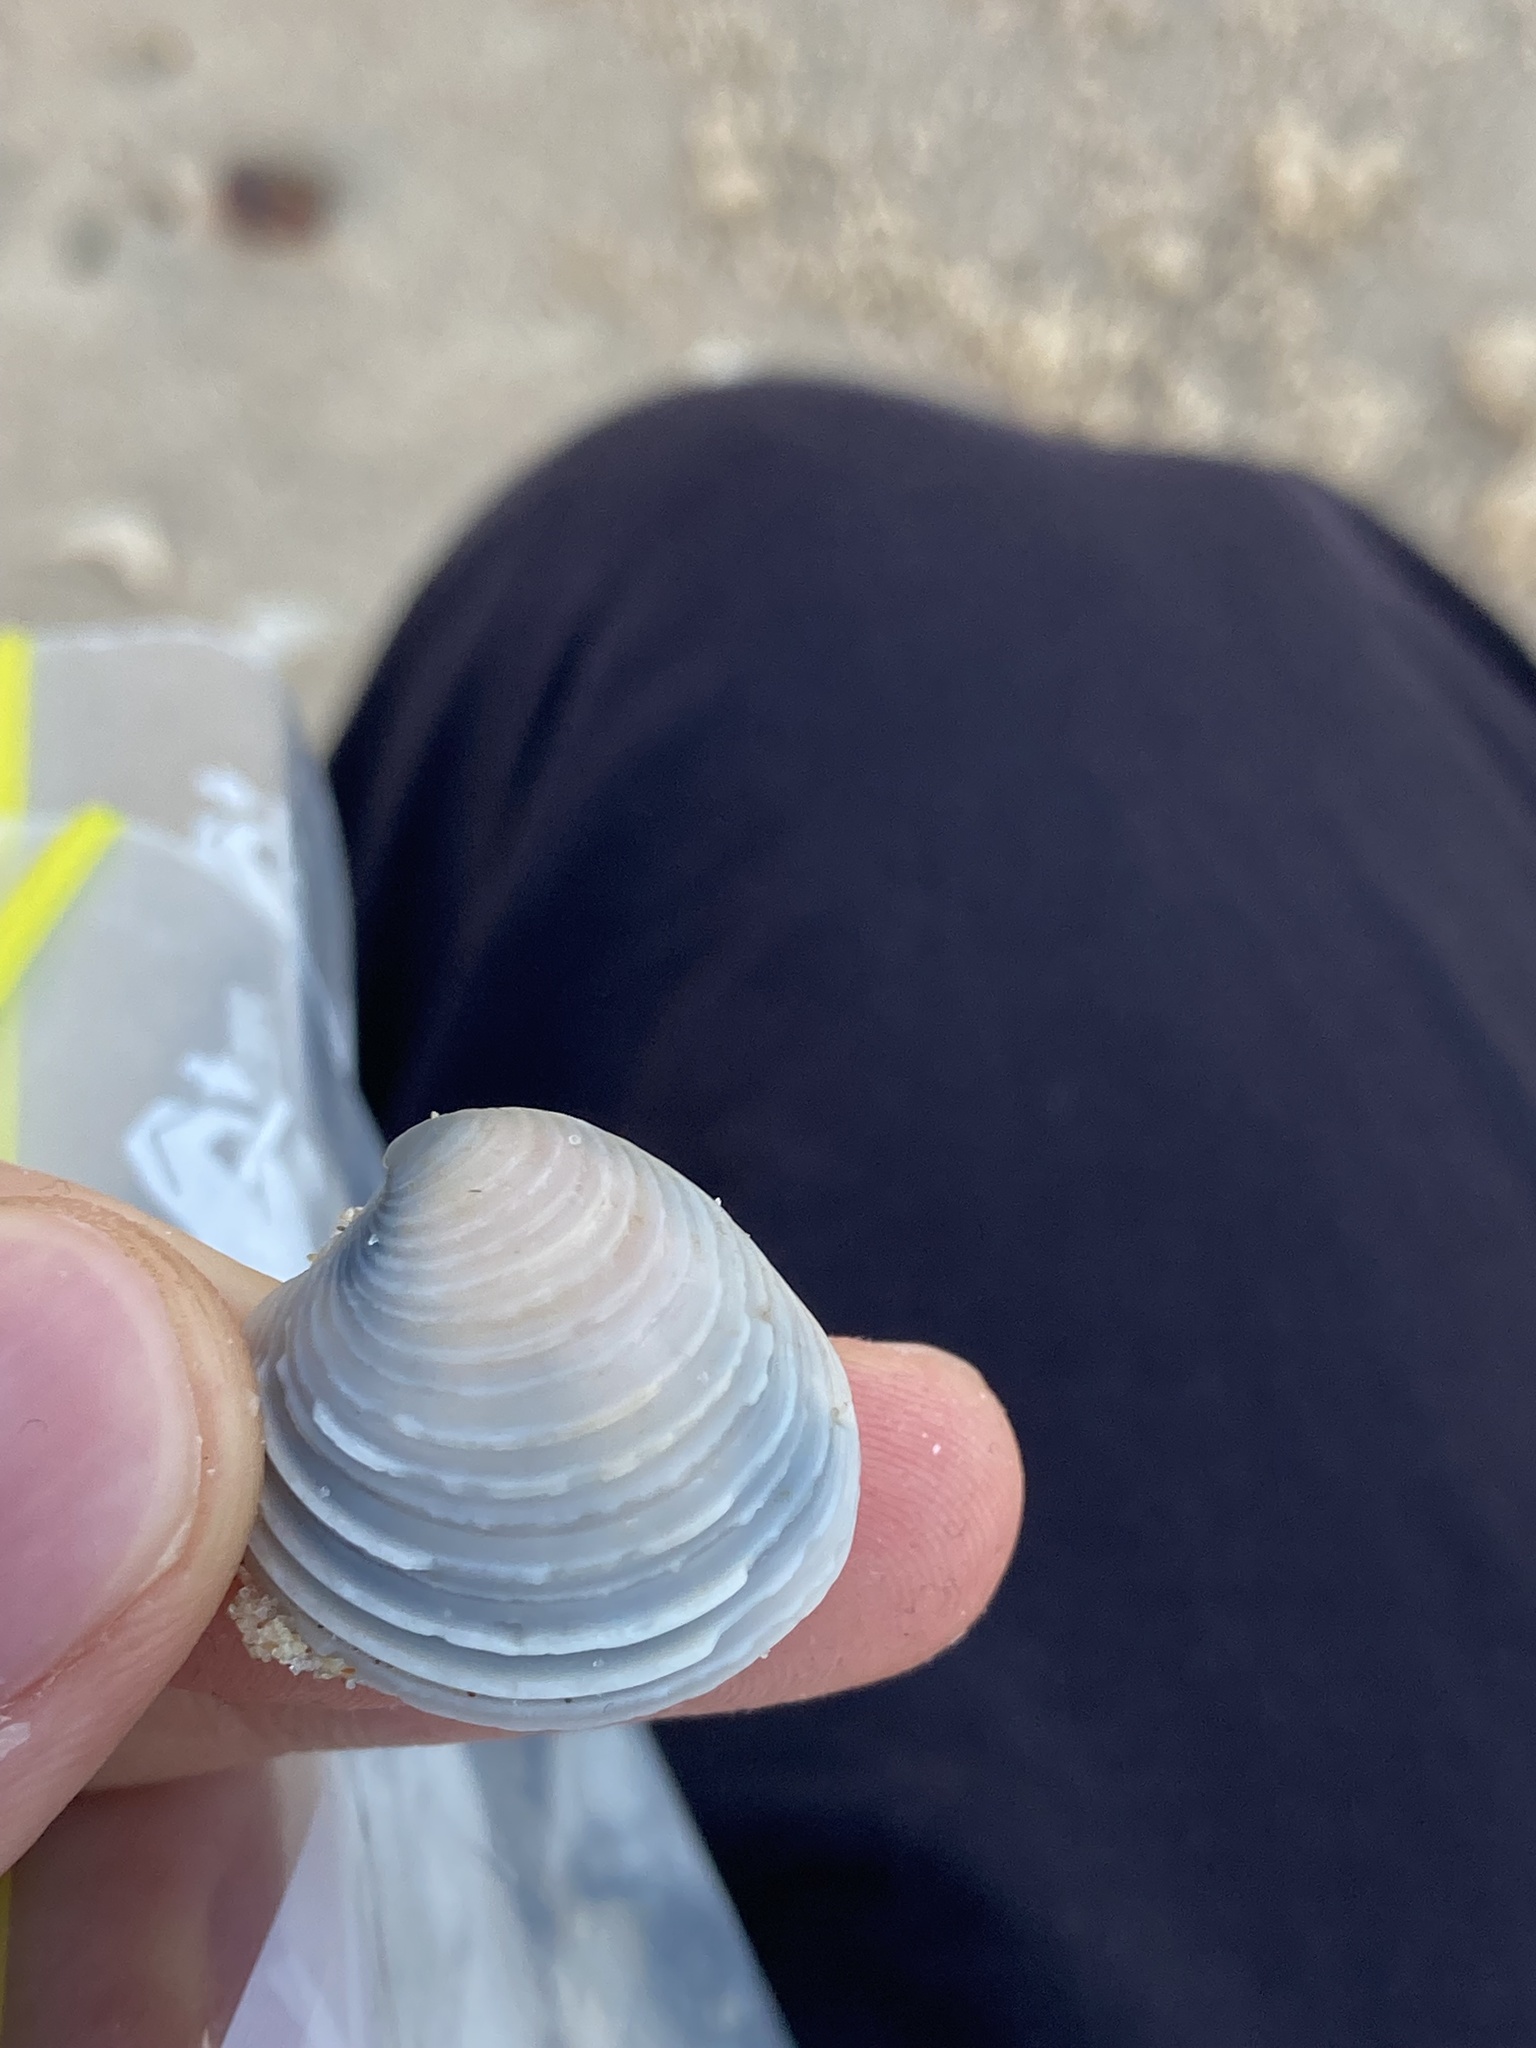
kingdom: Animalia
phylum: Mollusca
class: Bivalvia
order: Venerida
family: Veneridae
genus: Placamen
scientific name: Placamen placidum
